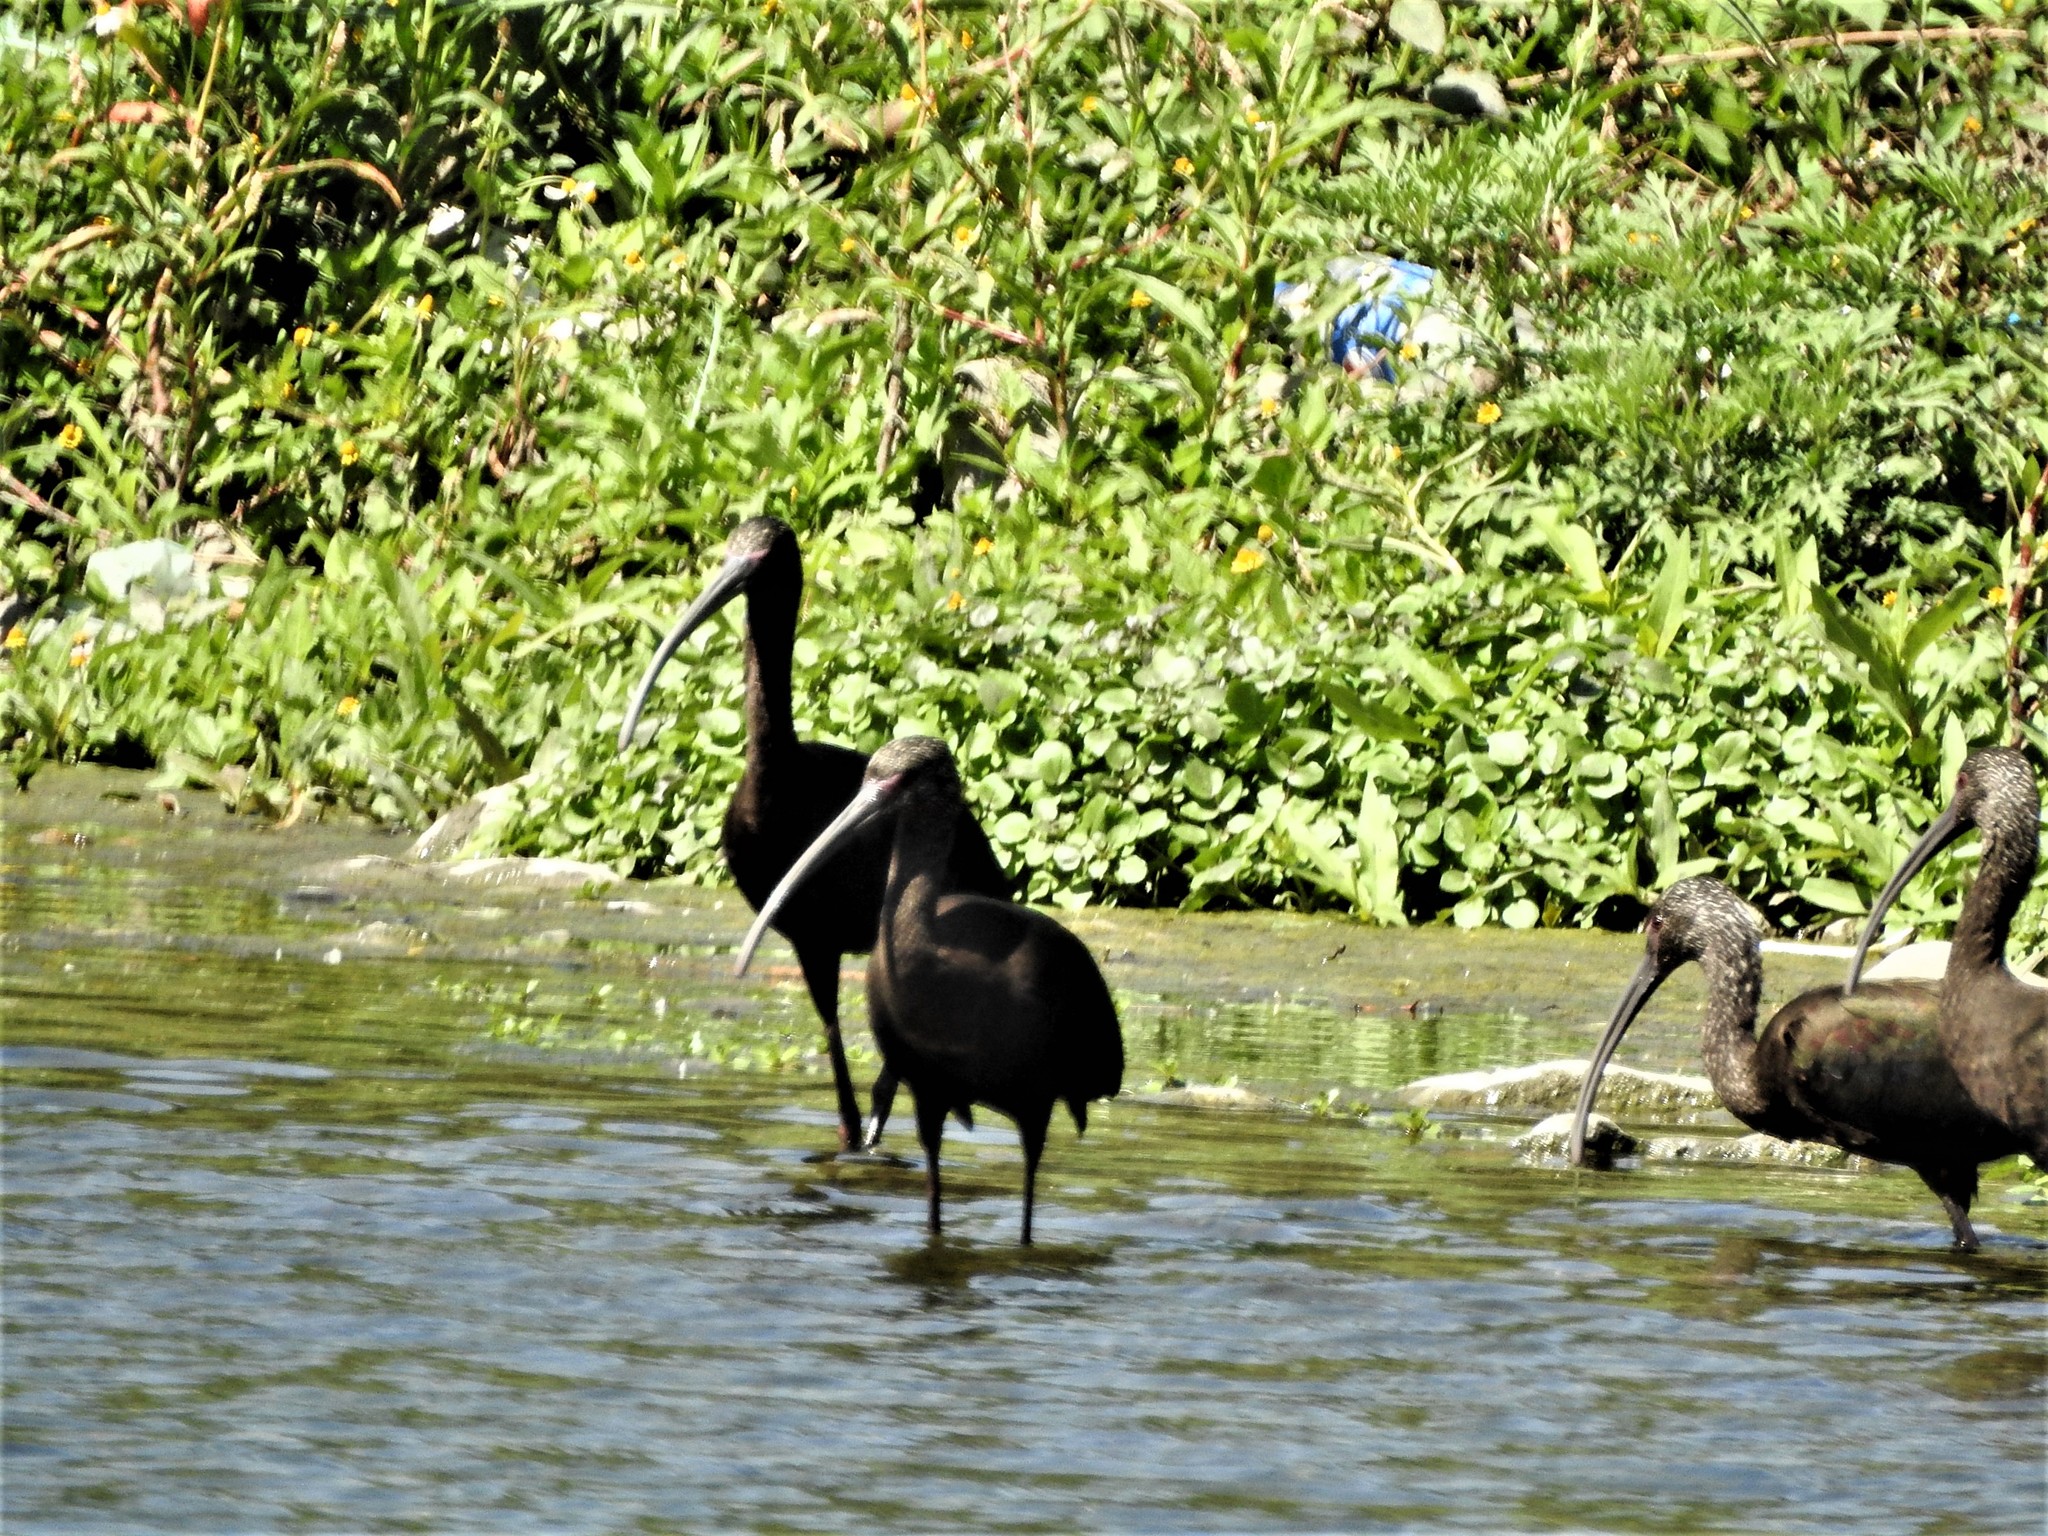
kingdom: Animalia
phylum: Chordata
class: Aves
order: Pelecaniformes
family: Threskiornithidae
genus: Plegadis
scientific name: Plegadis chihi
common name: White-faced ibis
